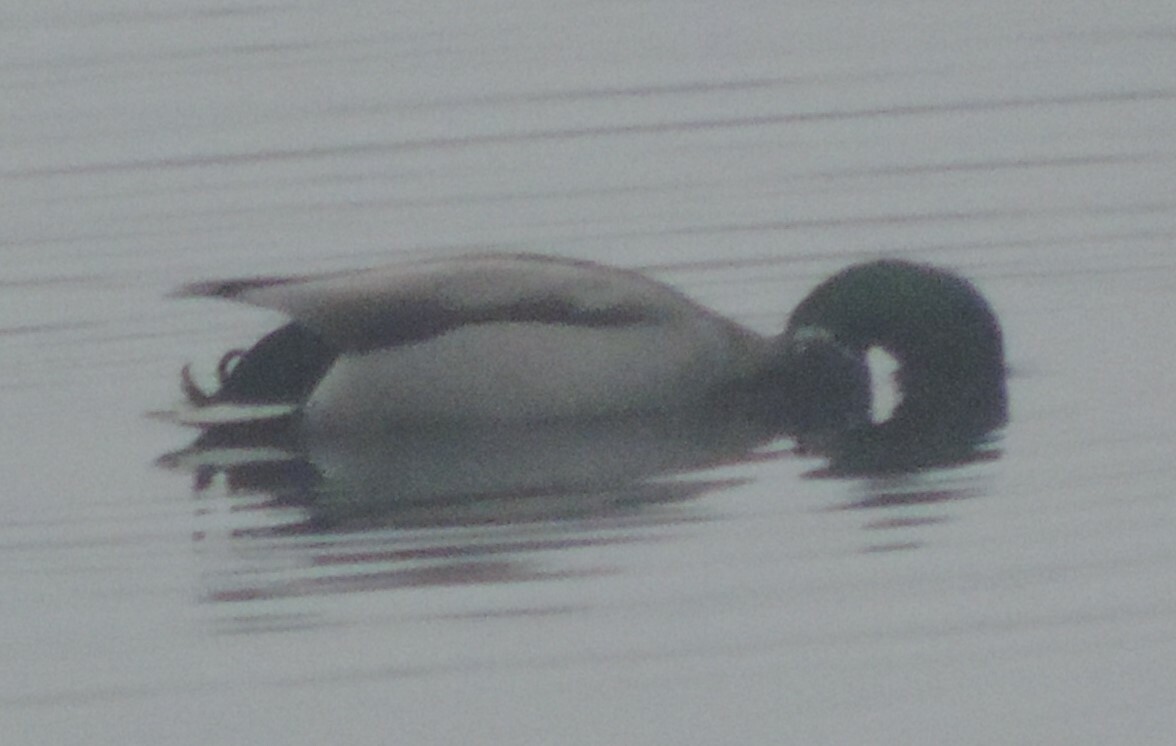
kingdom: Animalia
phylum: Chordata
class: Aves
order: Anseriformes
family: Anatidae
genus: Anas
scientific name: Anas platyrhynchos
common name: Mallard
